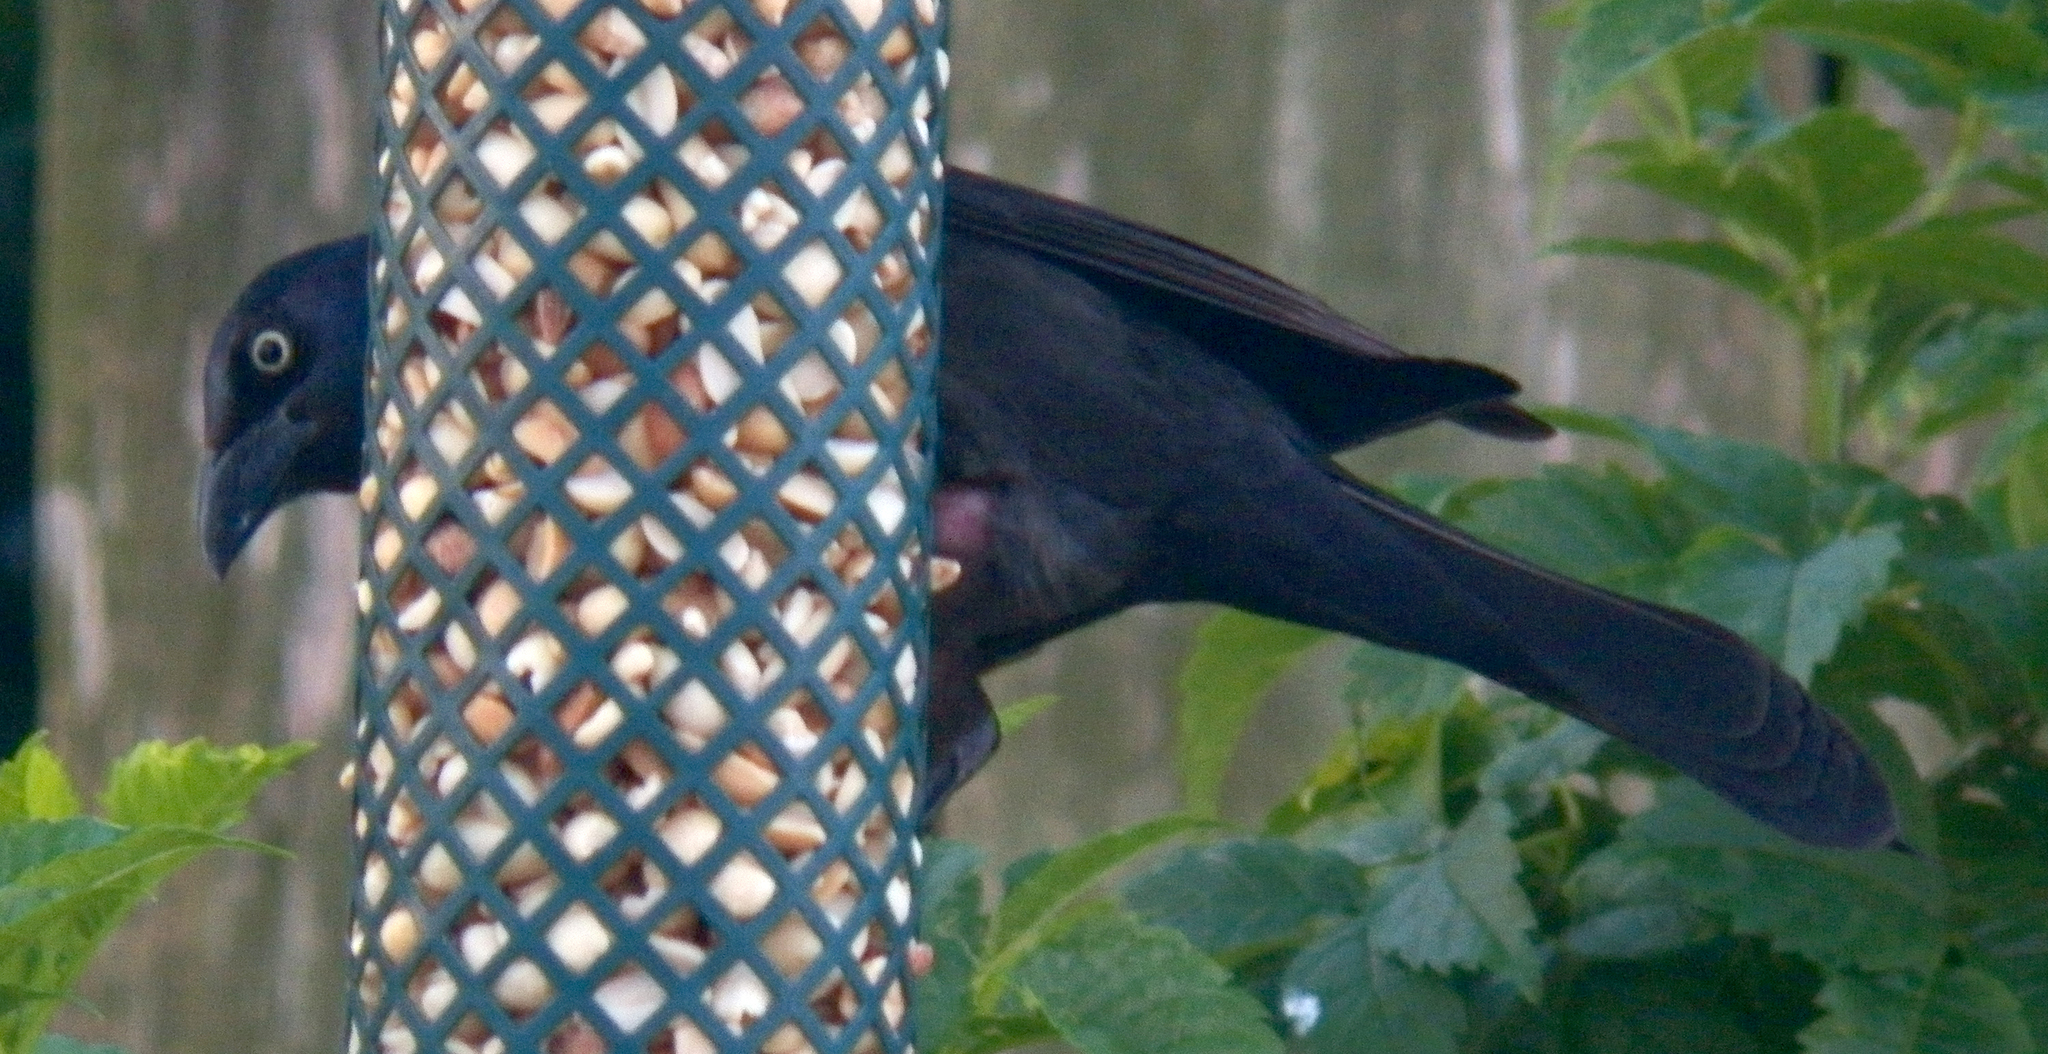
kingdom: Animalia
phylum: Chordata
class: Aves
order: Passeriformes
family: Icteridae
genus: Quiscalus
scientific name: Quiscalus quiscula
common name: Common grackle
